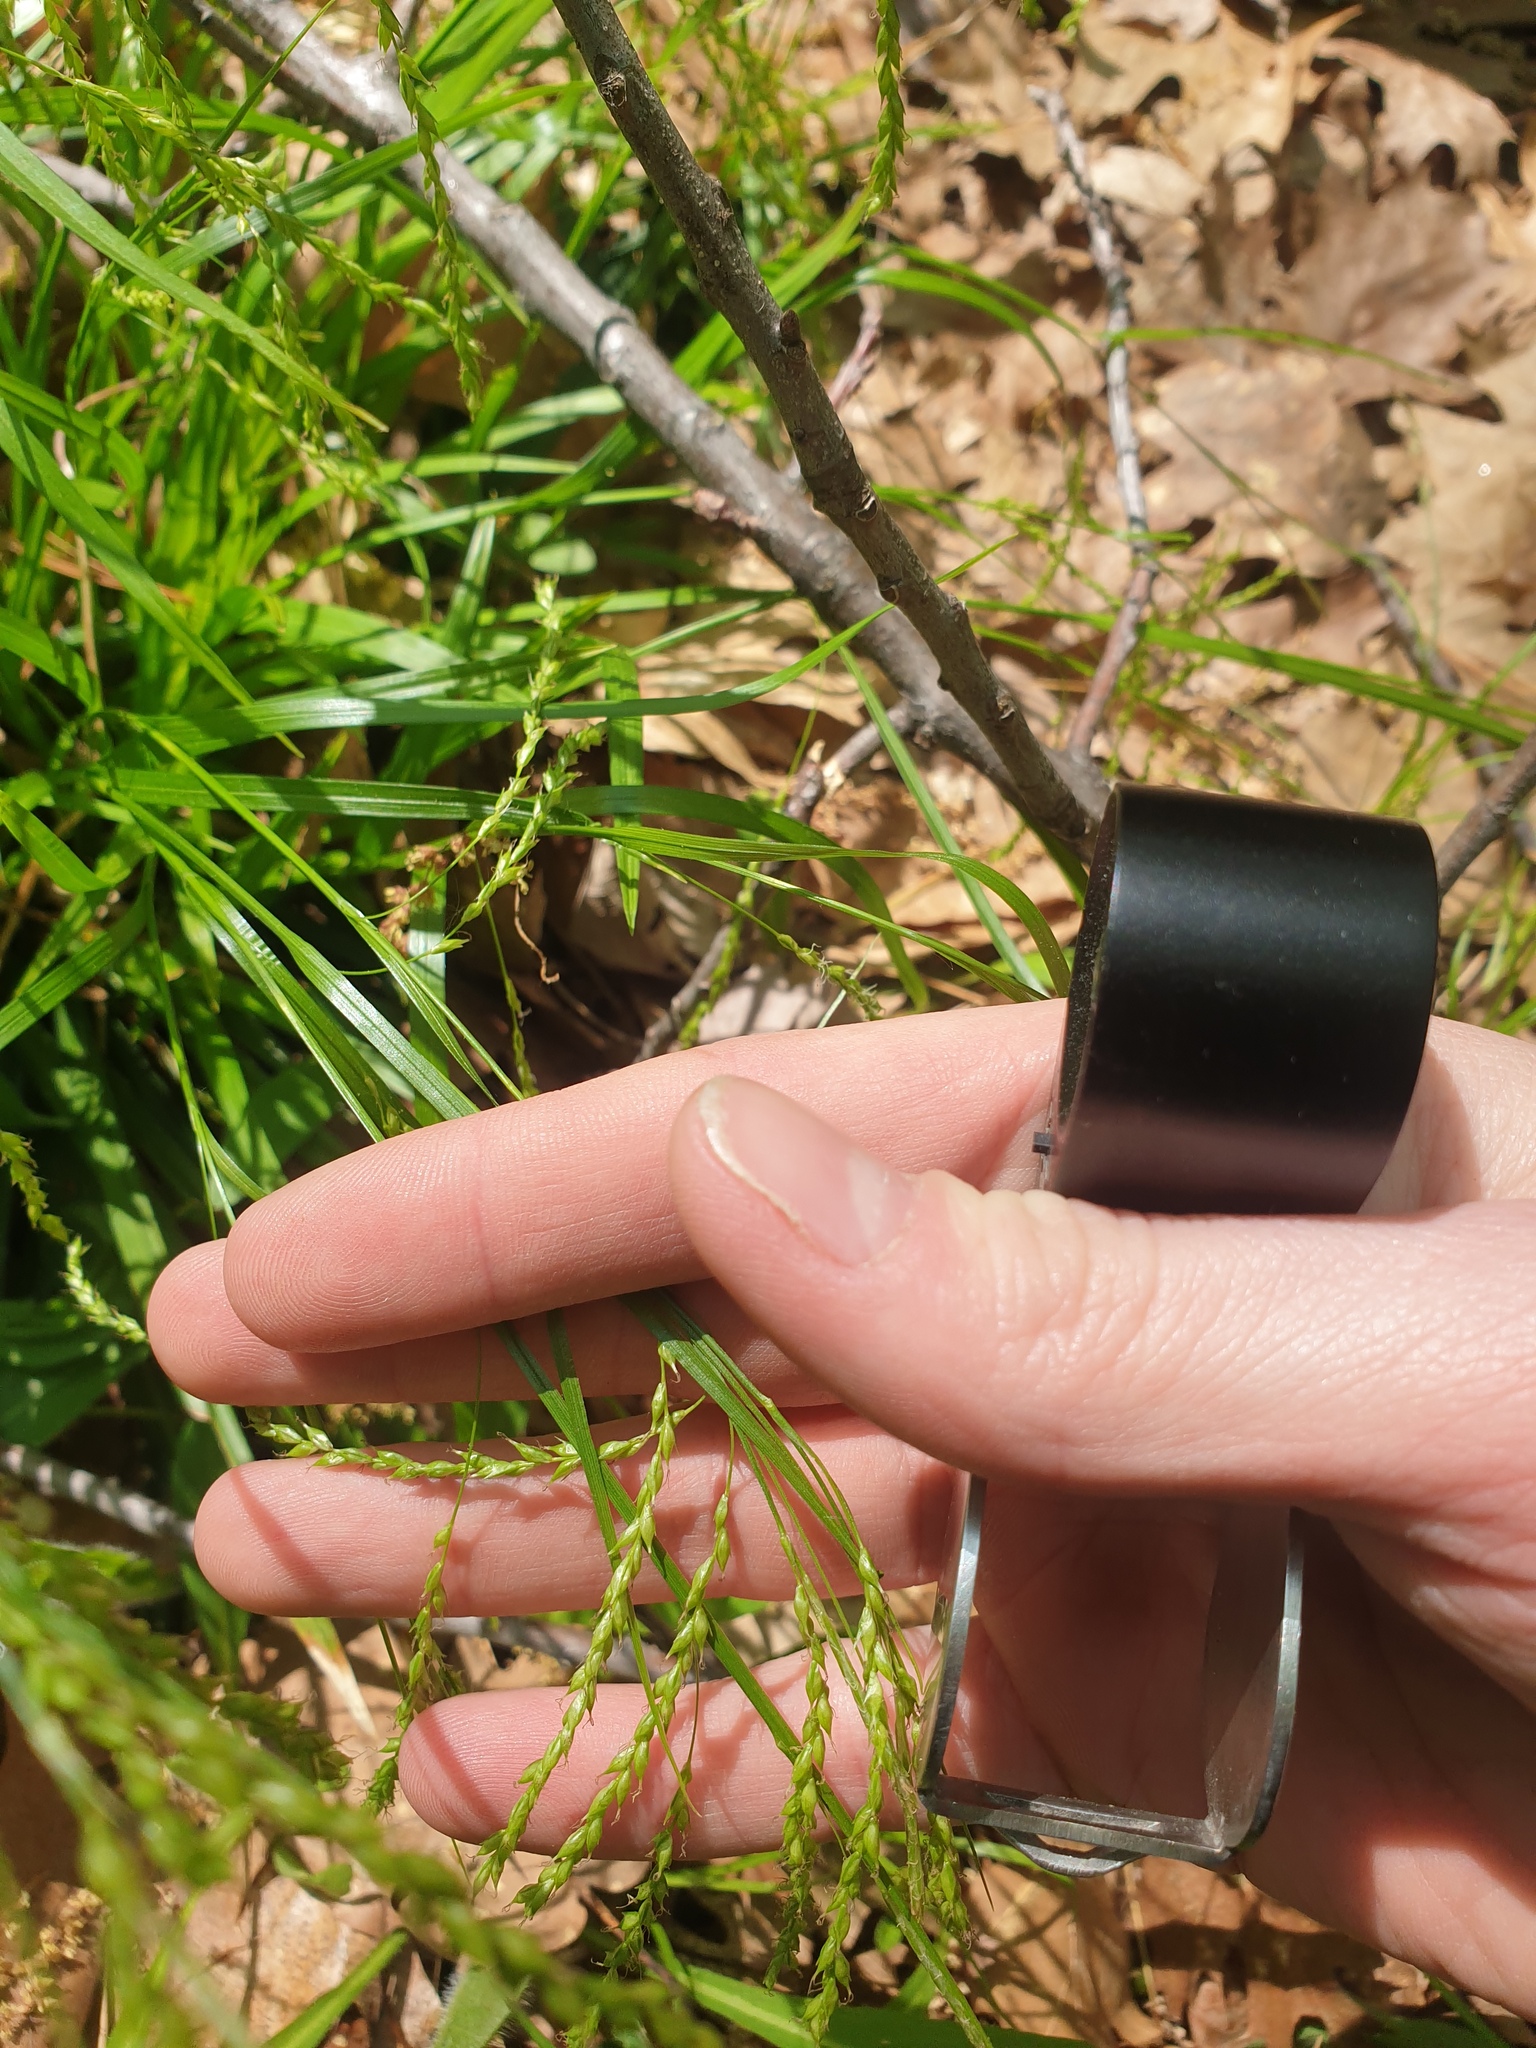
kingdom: Plantae
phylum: Tracheophyta
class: Liliopsida
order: Poales
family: Cyperaceae
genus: Carex
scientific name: Carex arctata
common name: Black sedge
